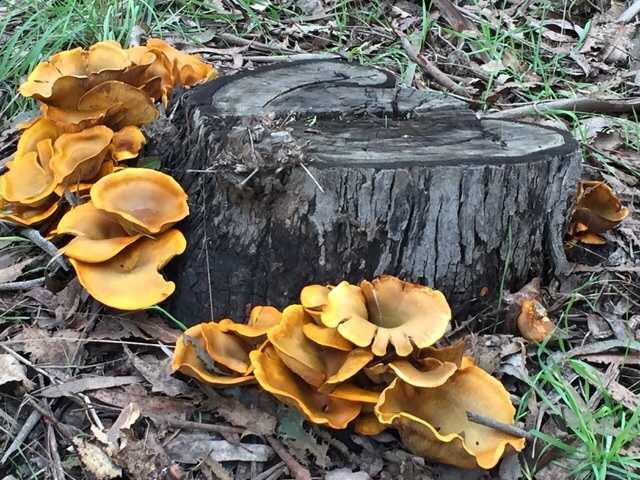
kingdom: Fungi
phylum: Basidiomycota
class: Agaricomycetes
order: Agaricales
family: Omphalotaceae
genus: Omphalotus
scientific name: Omphalotus olivascens
